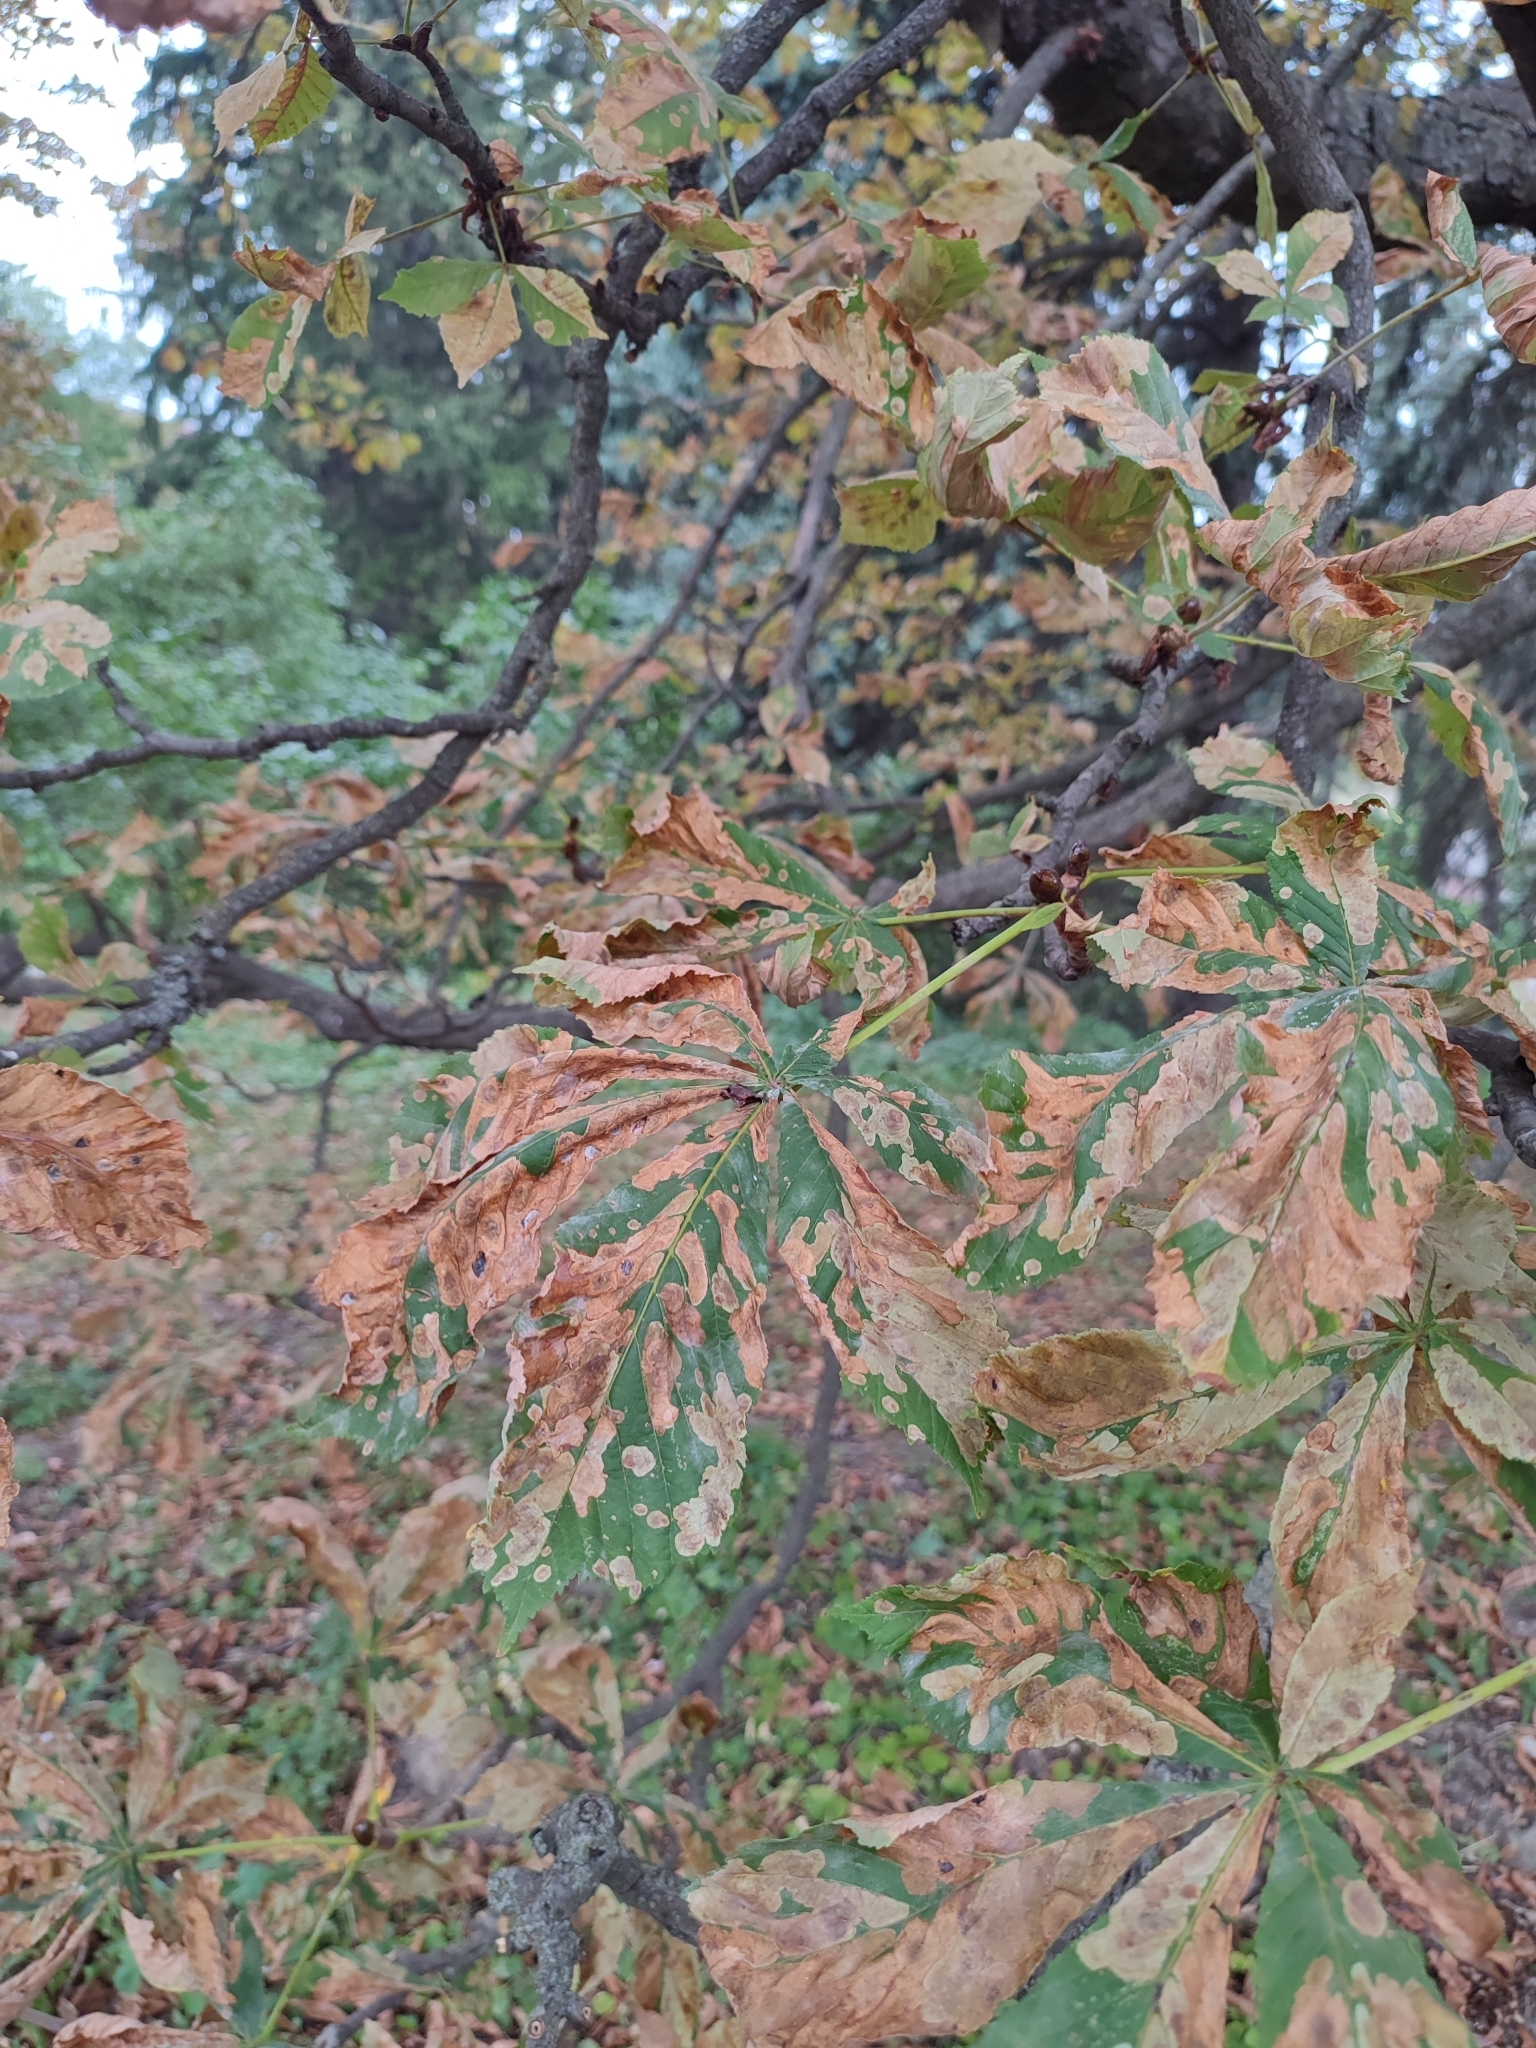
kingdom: Animalia
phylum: Arthropoda
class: Insecta
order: Lepidoptera
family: Gracillariidae
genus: Cameraria
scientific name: Cameraria ohridella
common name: Horse-chestnut leaf-miner
